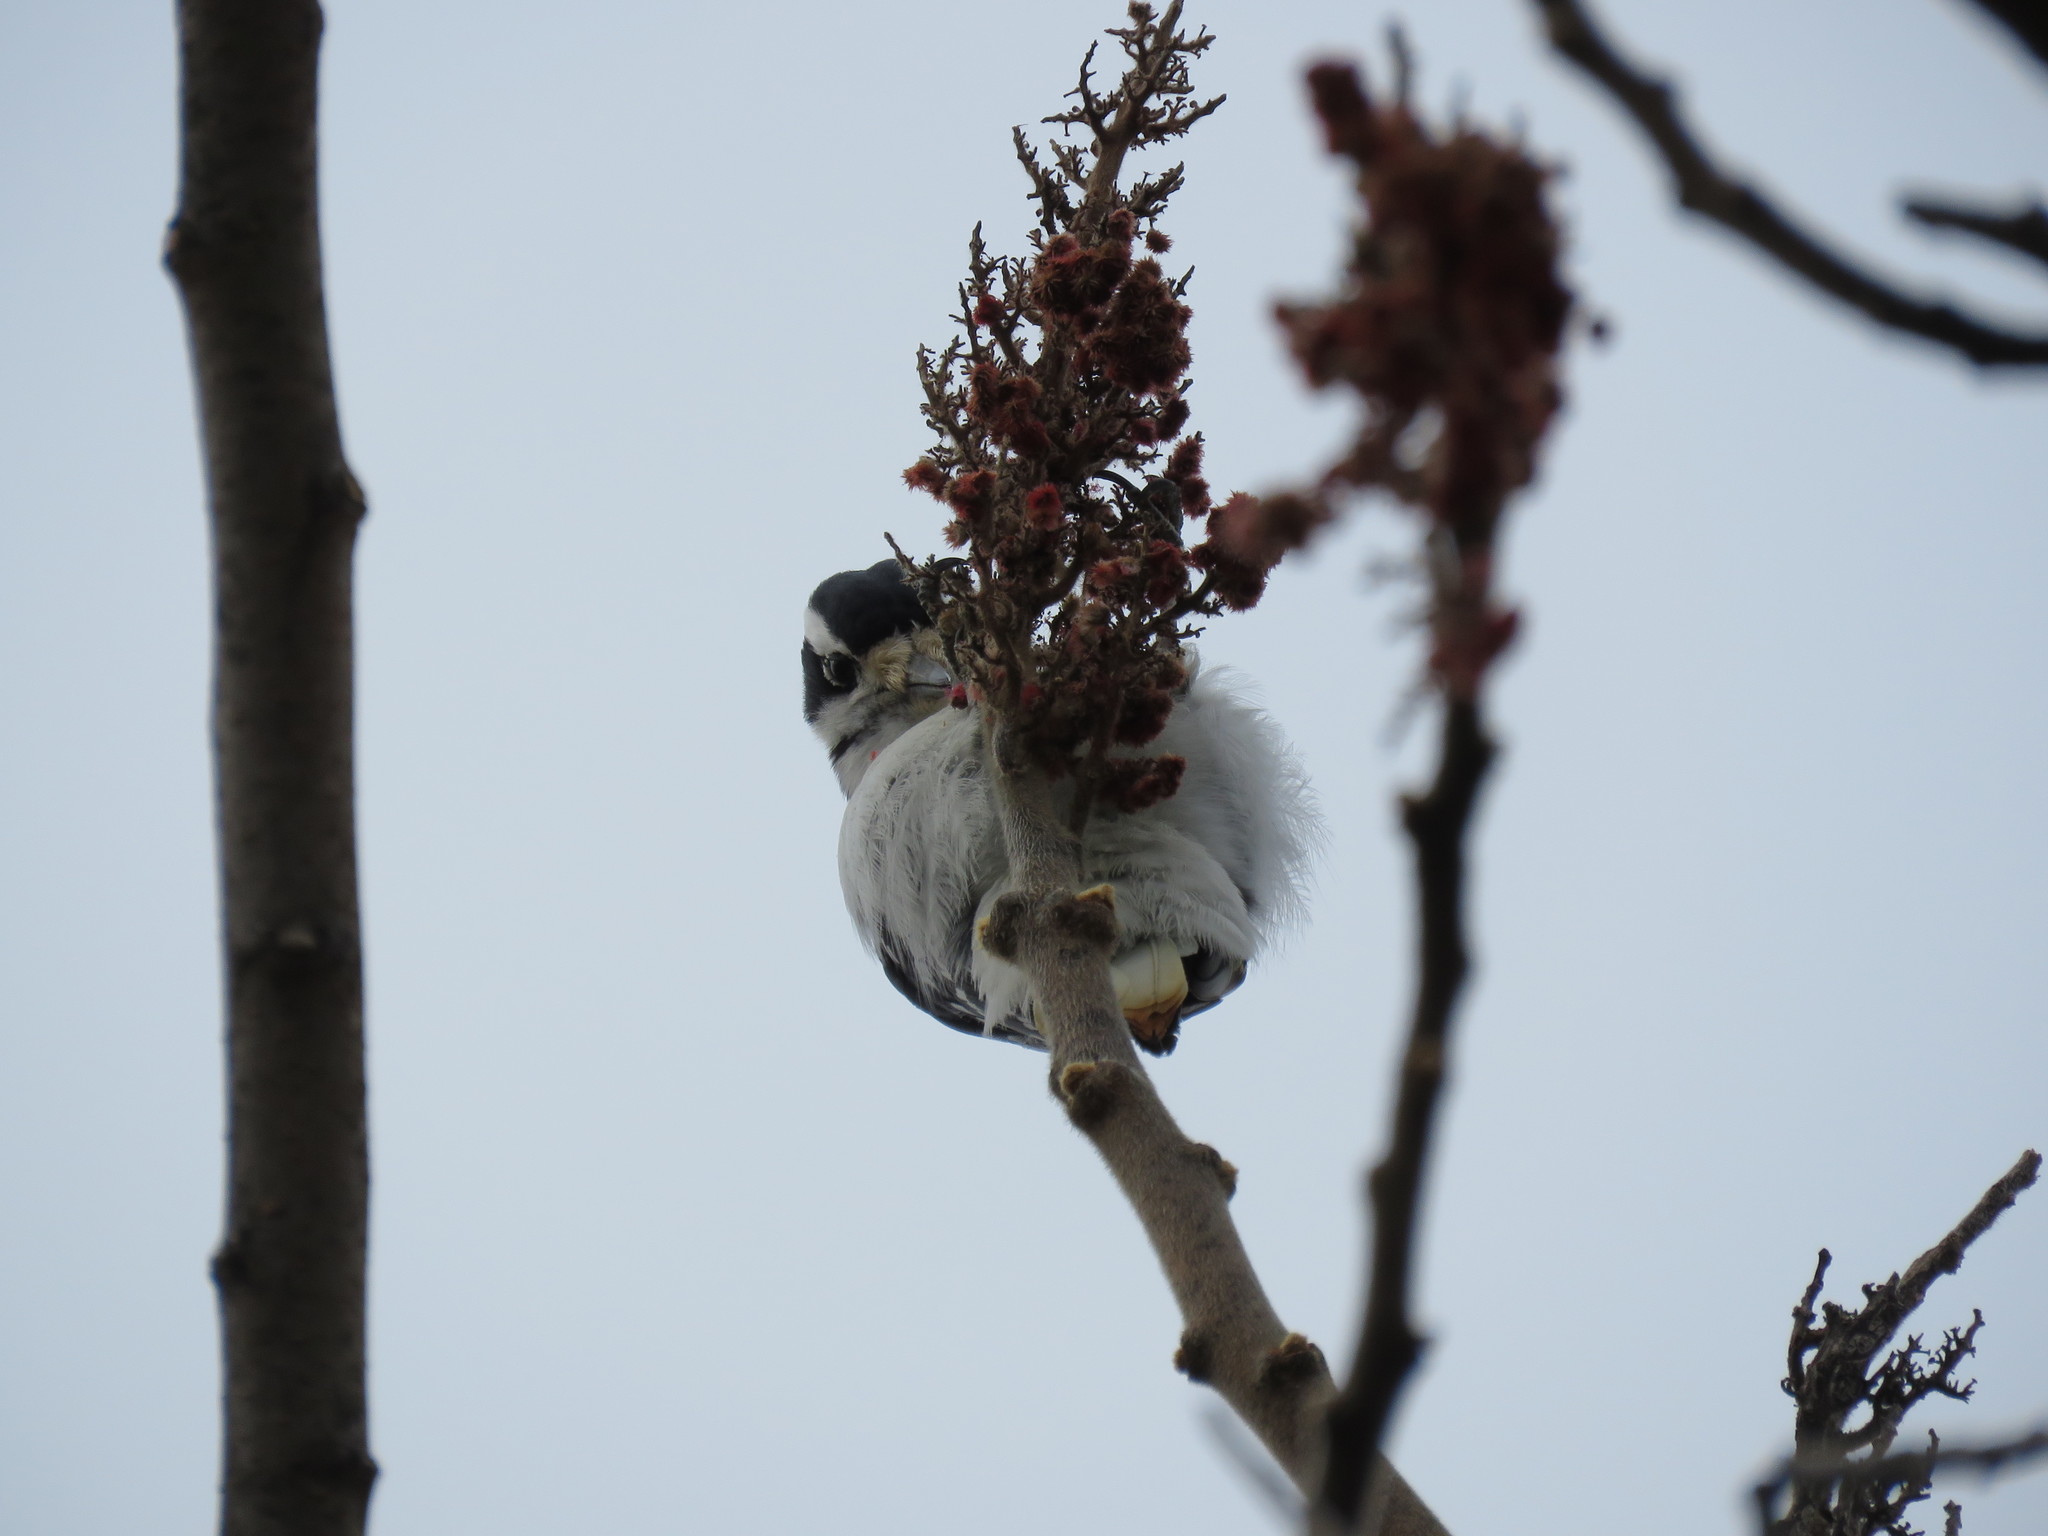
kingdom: Animalia
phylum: Chordata
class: Aves
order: Piciformes
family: Picidae
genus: Leuconotopicus
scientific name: Leuconotopicus villosus
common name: Hairy woodpecker
